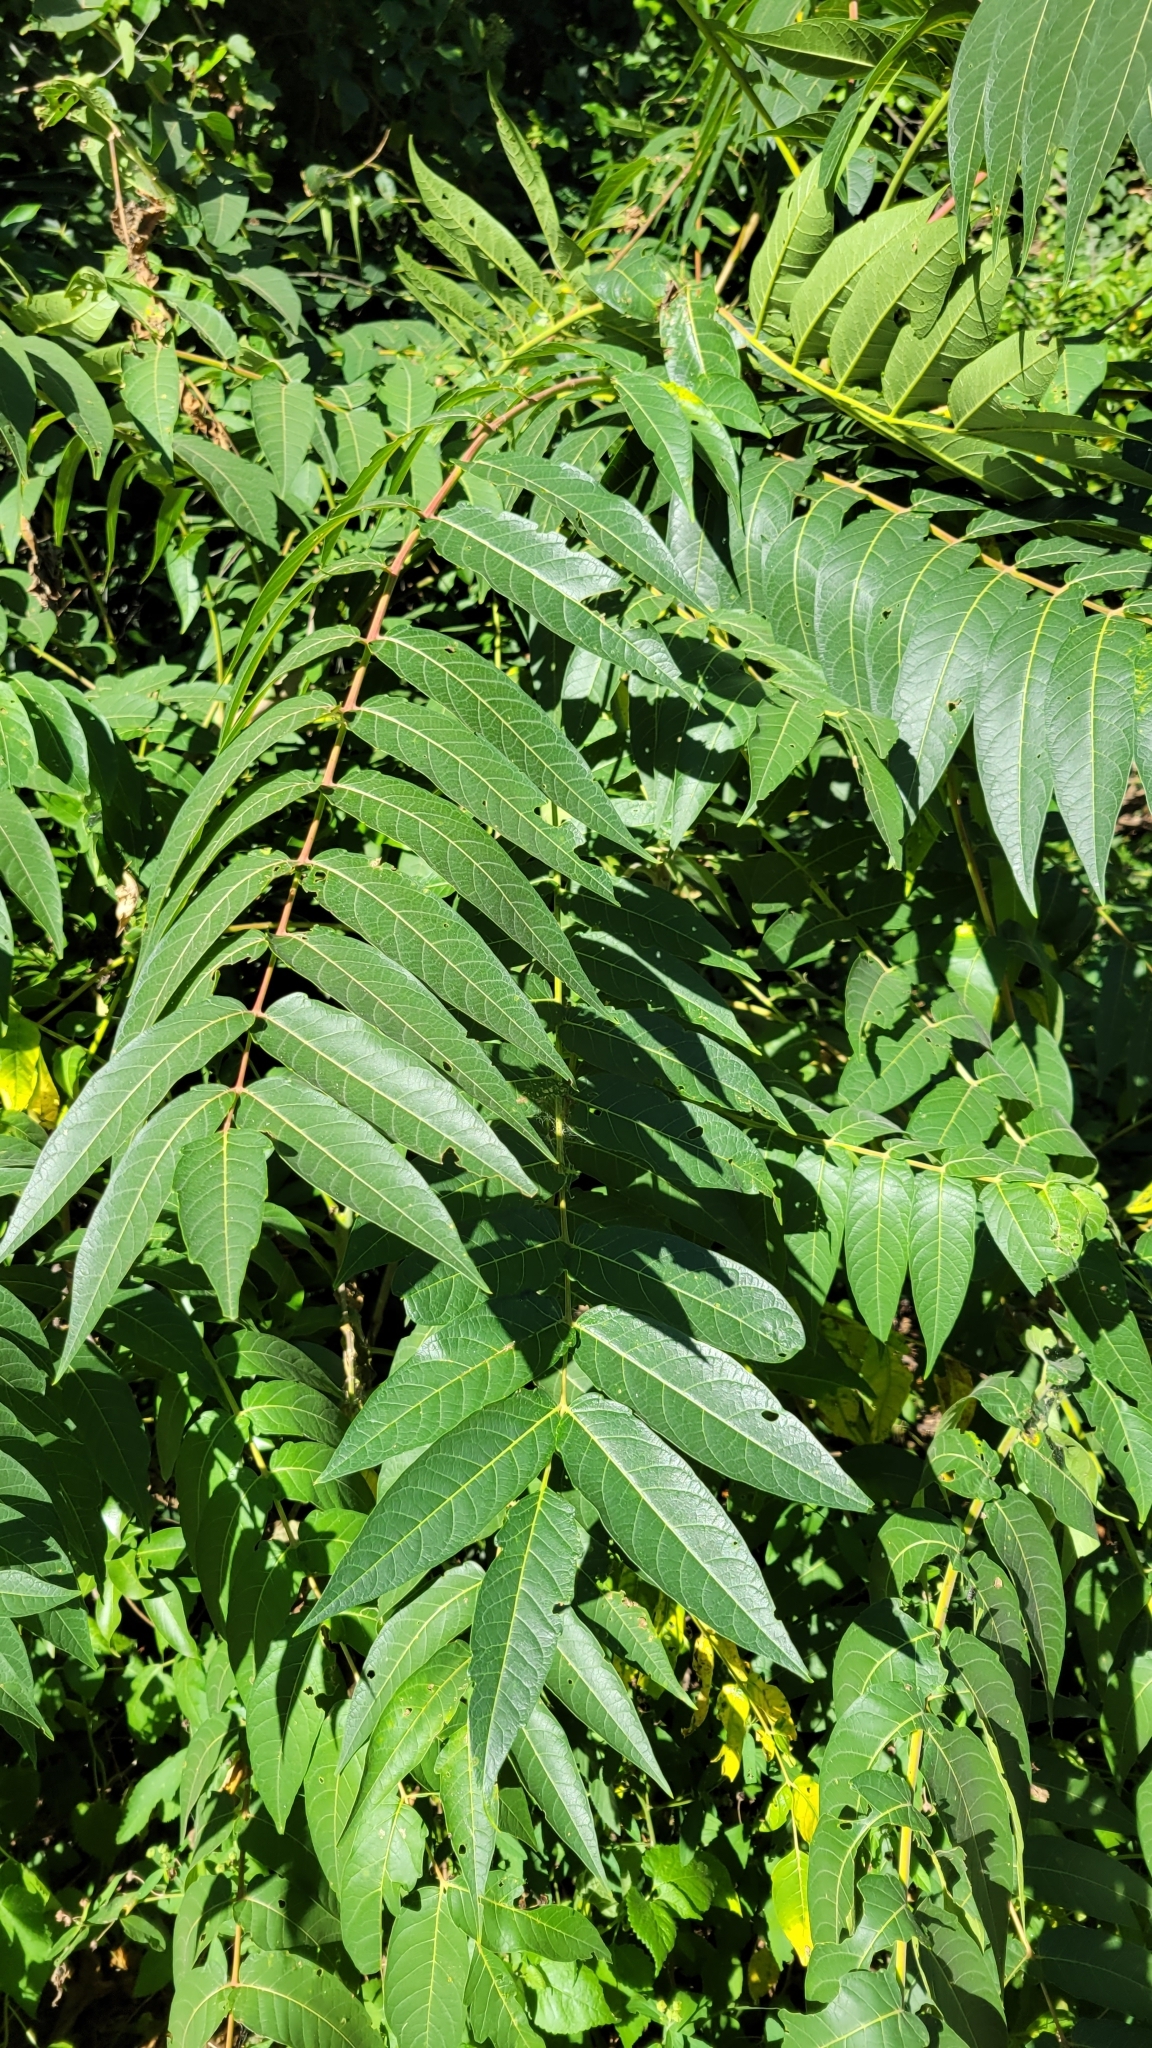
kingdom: Plantae
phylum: Tracheophyta
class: Magnoliopsida
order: Sapindales
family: Simaroubaceae
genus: Ailanthus
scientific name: Ailanthus altissima
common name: Tree-of-heaven
